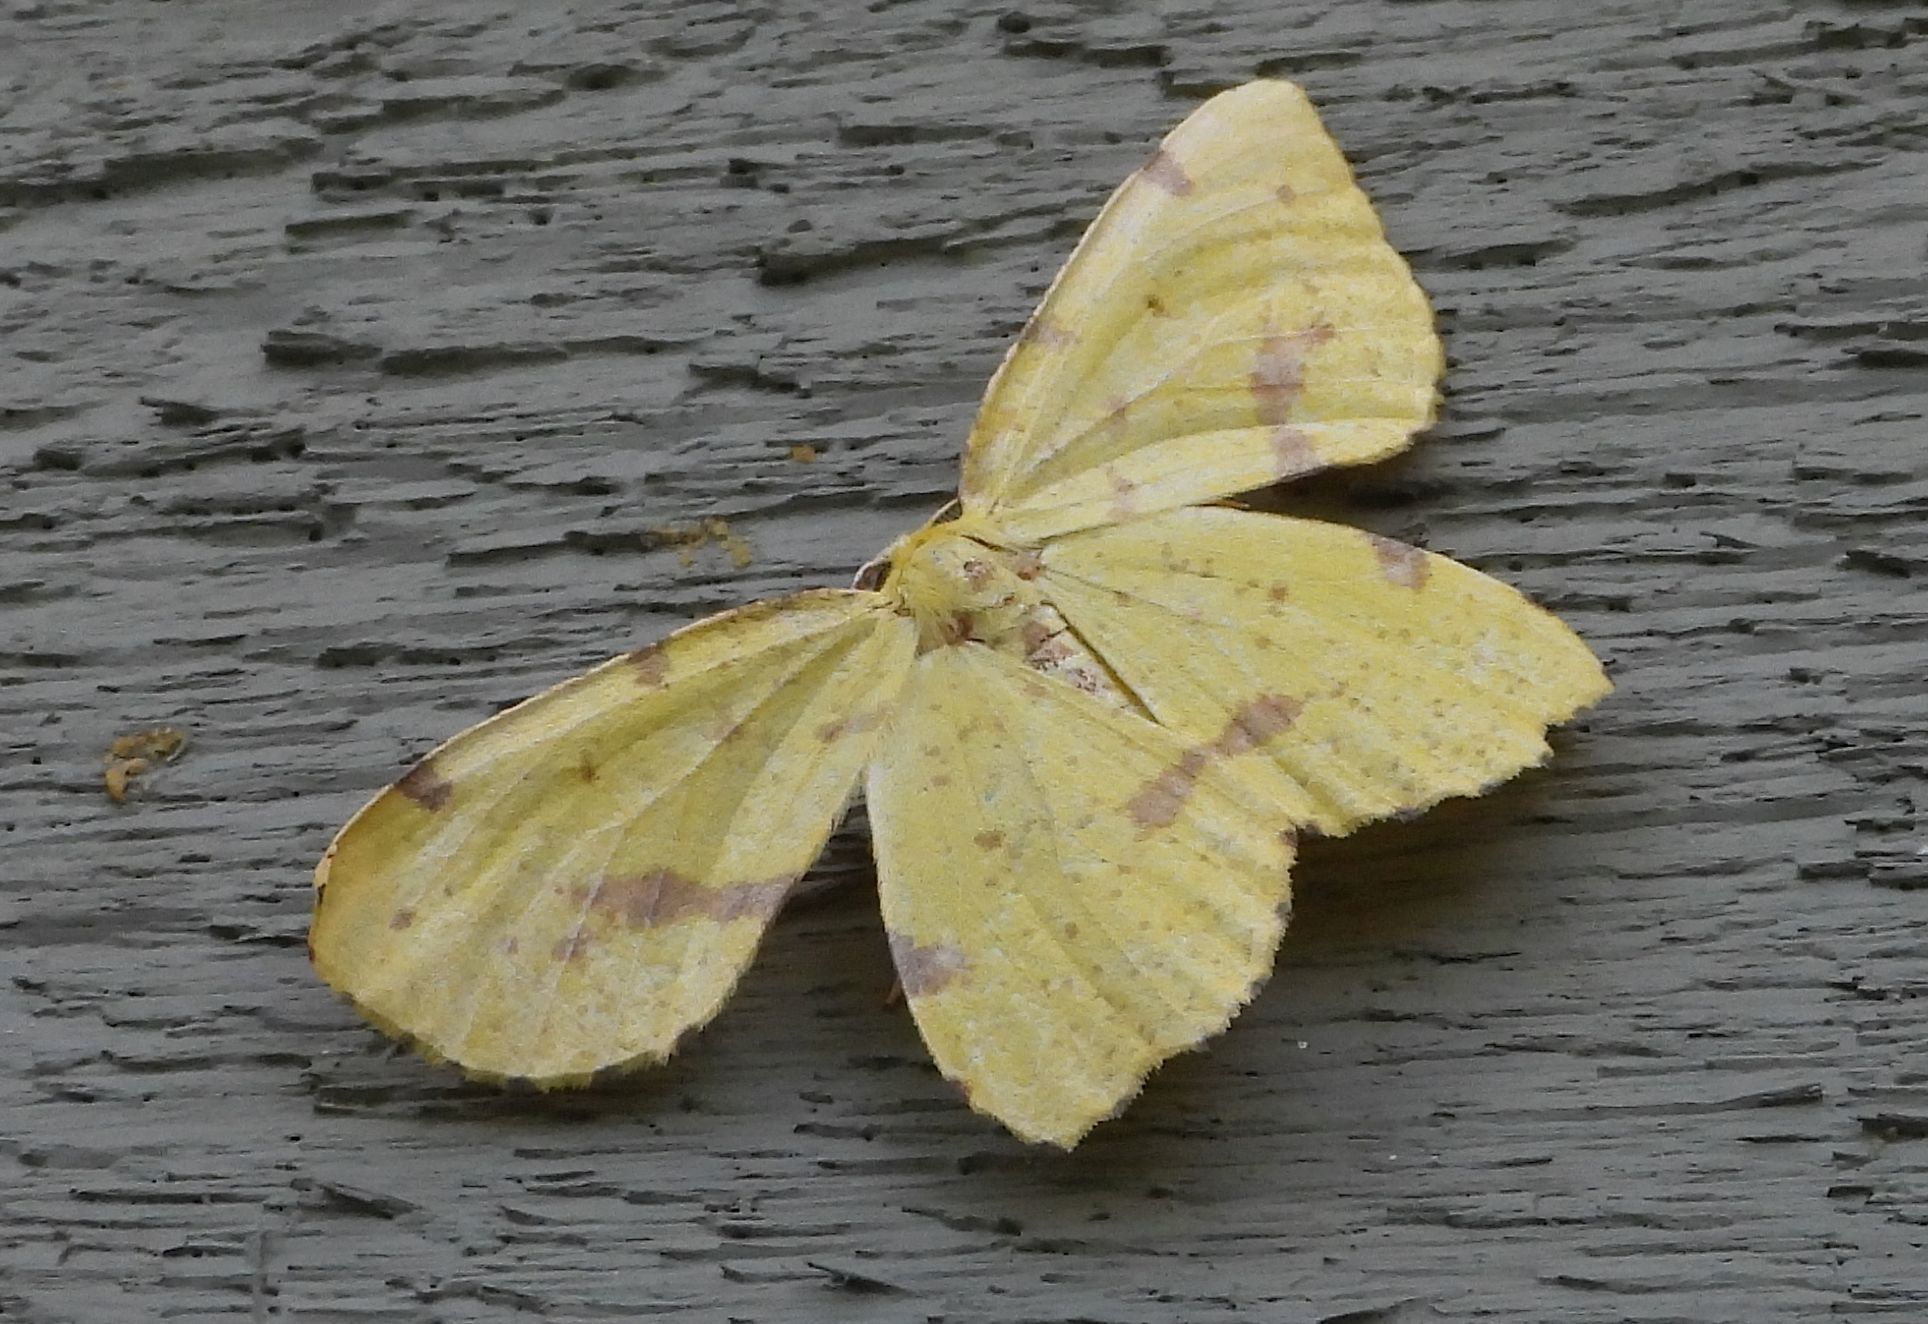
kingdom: Animalia
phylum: Arthropoda
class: Insecta
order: Lepidoptera
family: Geometridae
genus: Xanthotype
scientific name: Xanthotype
